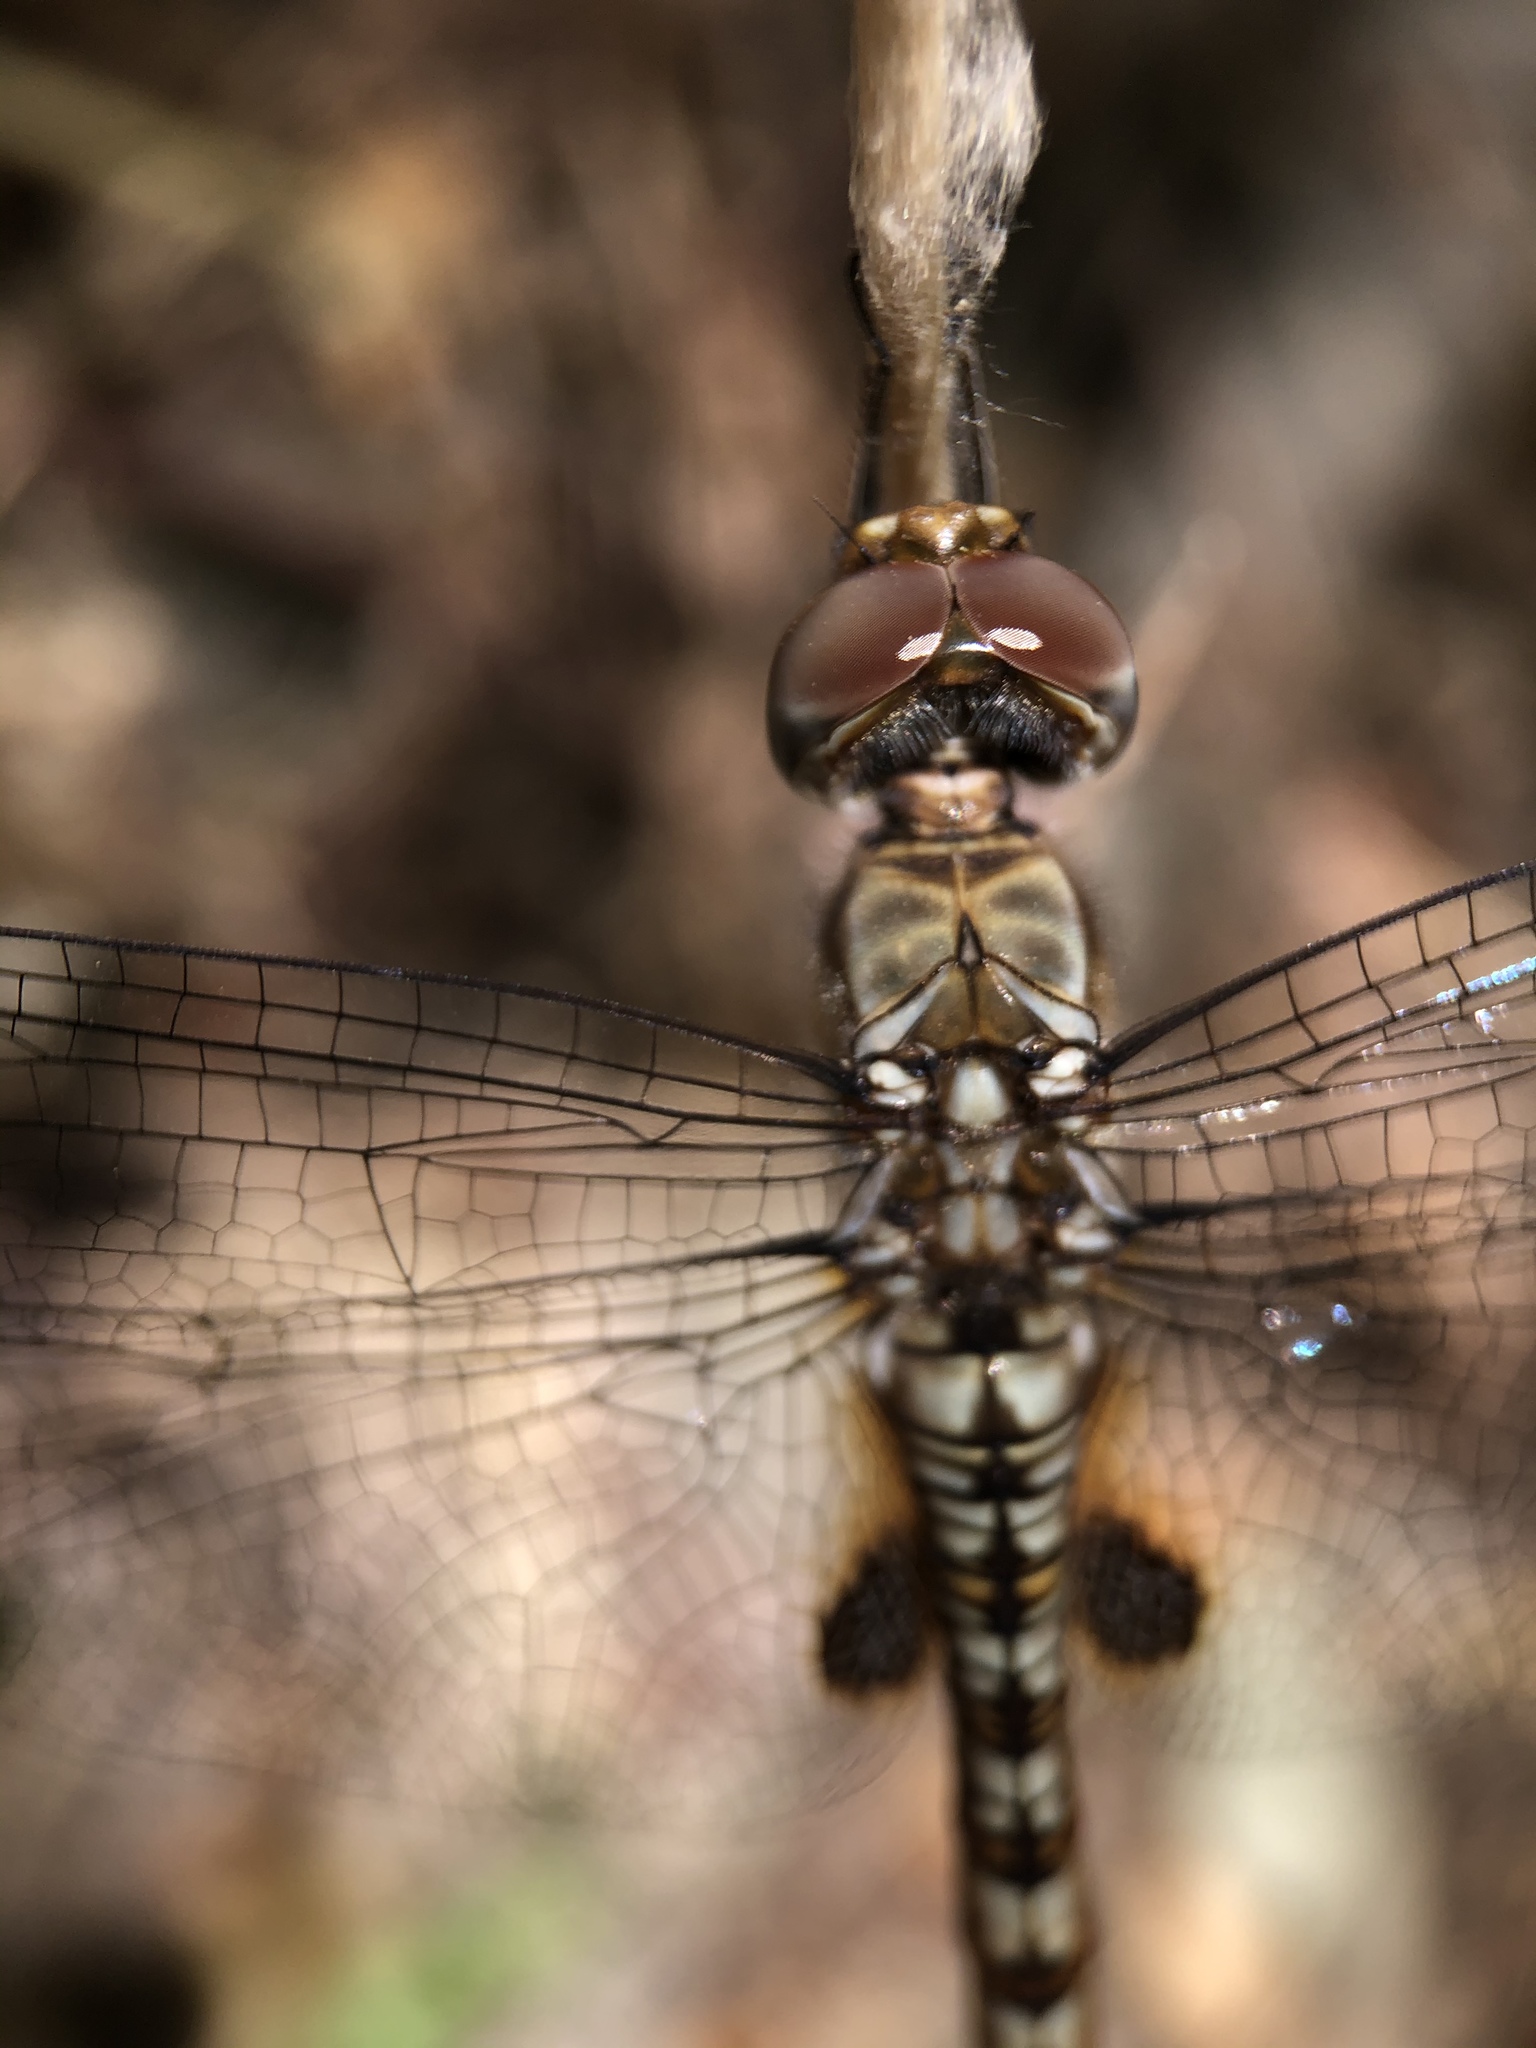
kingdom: Animalia
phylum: Arthropoda
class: Insecta
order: Odonata
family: Libellulidae
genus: Pantala
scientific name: Pantala hymenaea
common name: Spot-winged glider
